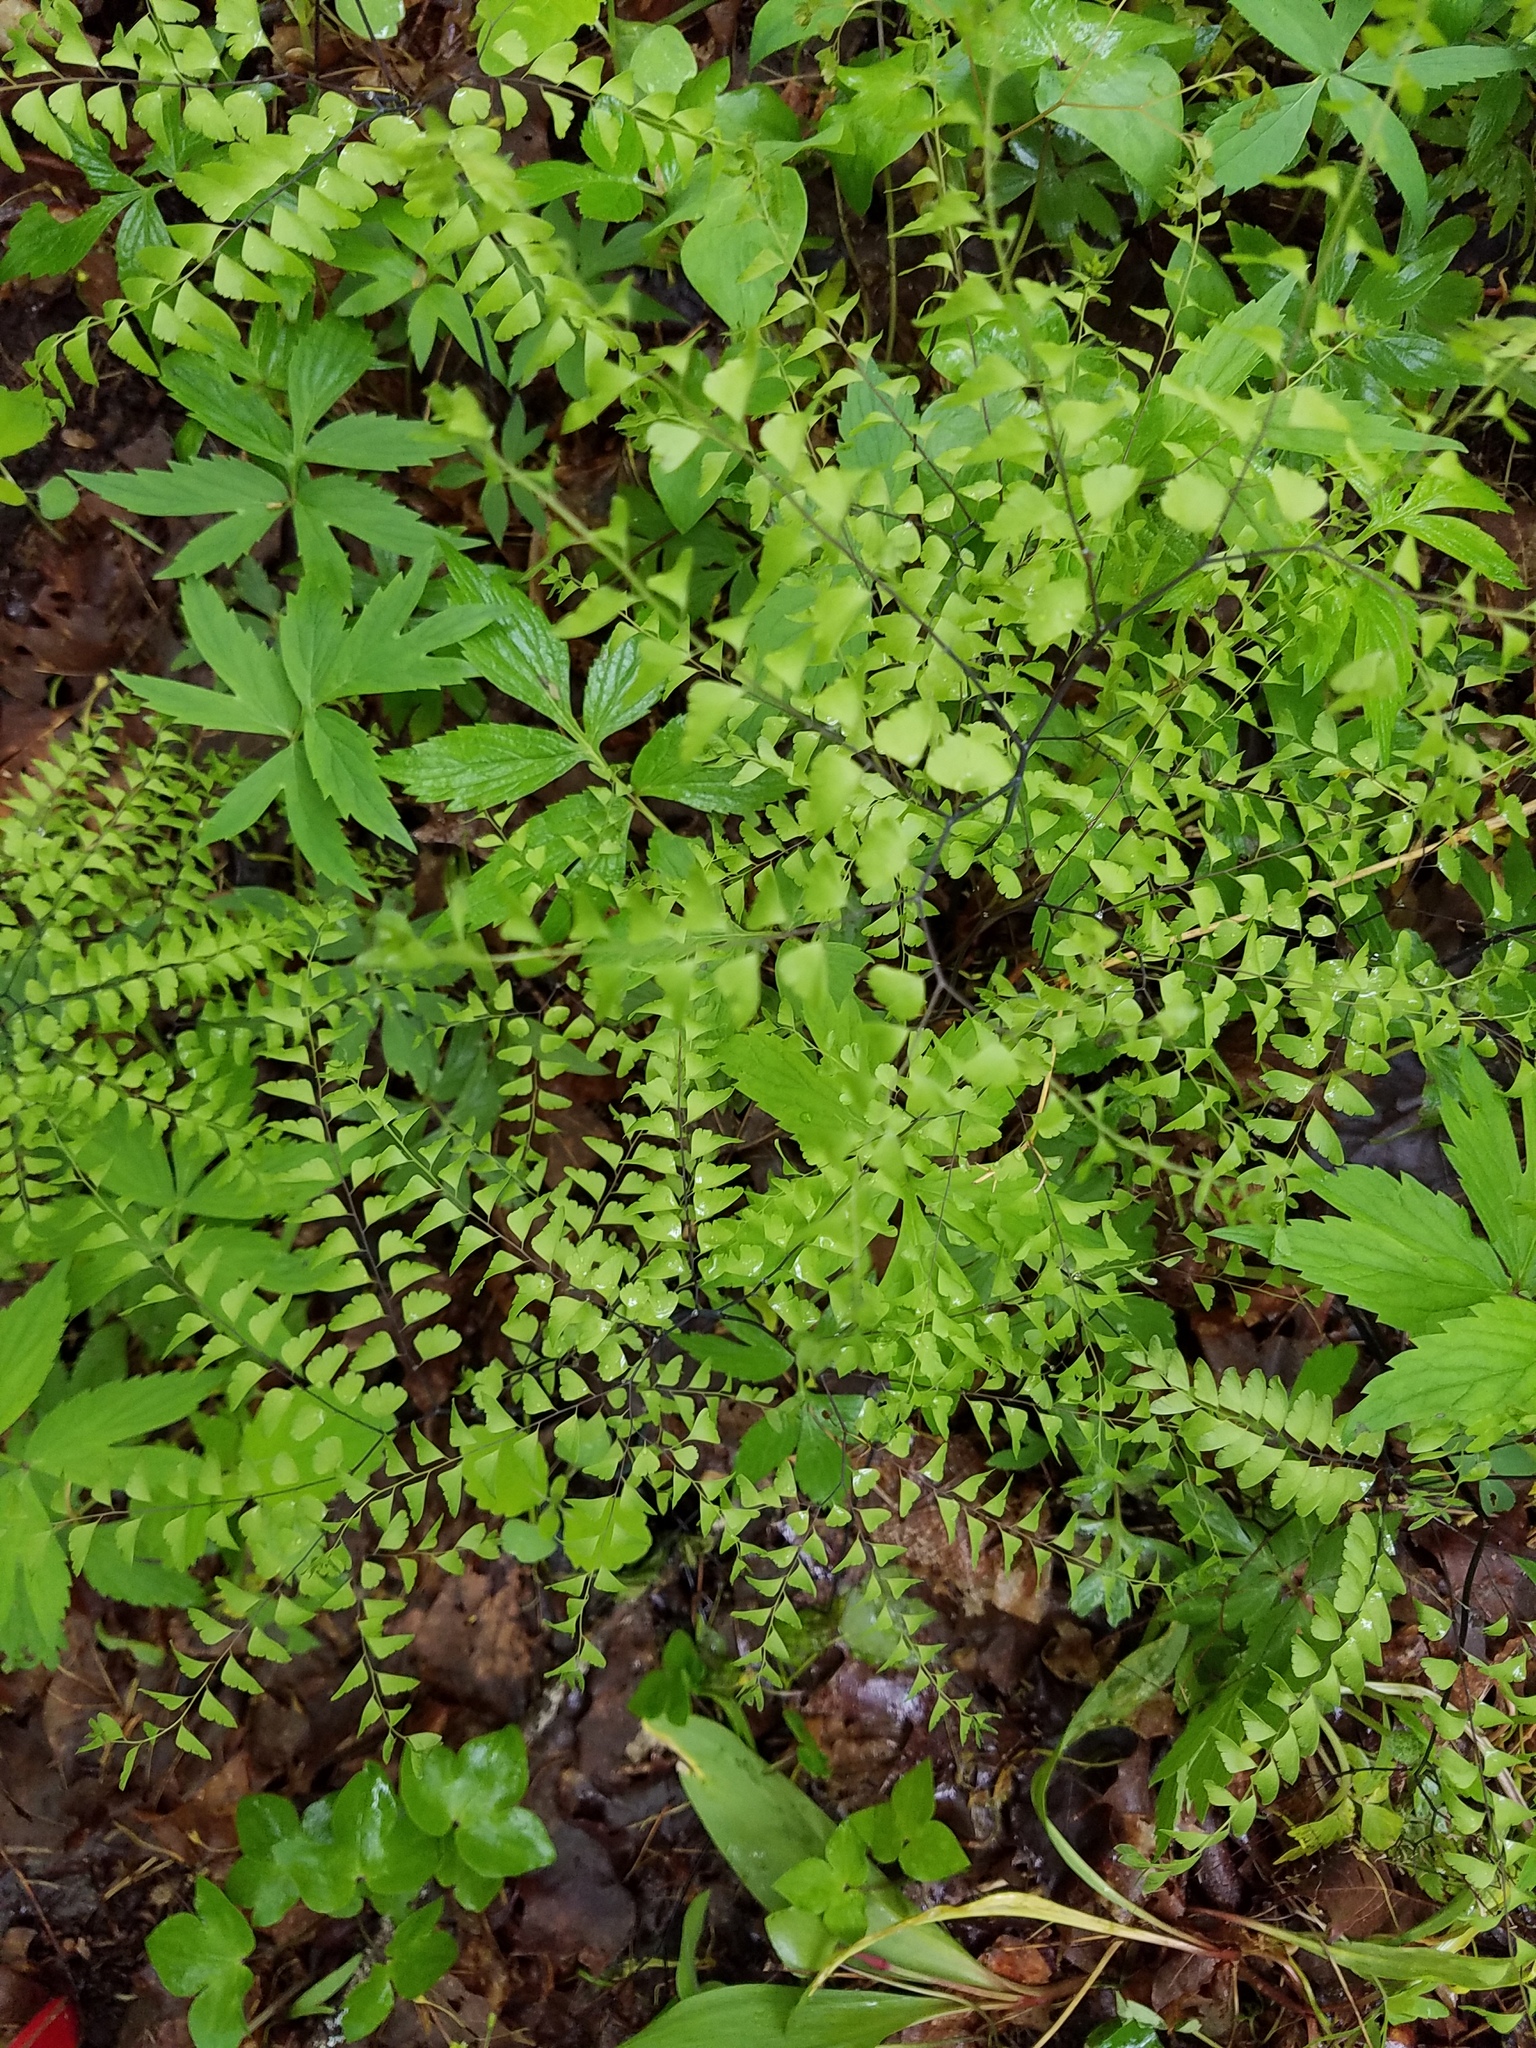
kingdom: Plantae
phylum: Tracheophyta
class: Polypodiopsida
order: Polypodiales
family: Pteridaceae
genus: Adiantum
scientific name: Adiantum pedatum
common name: Five-finger fern
